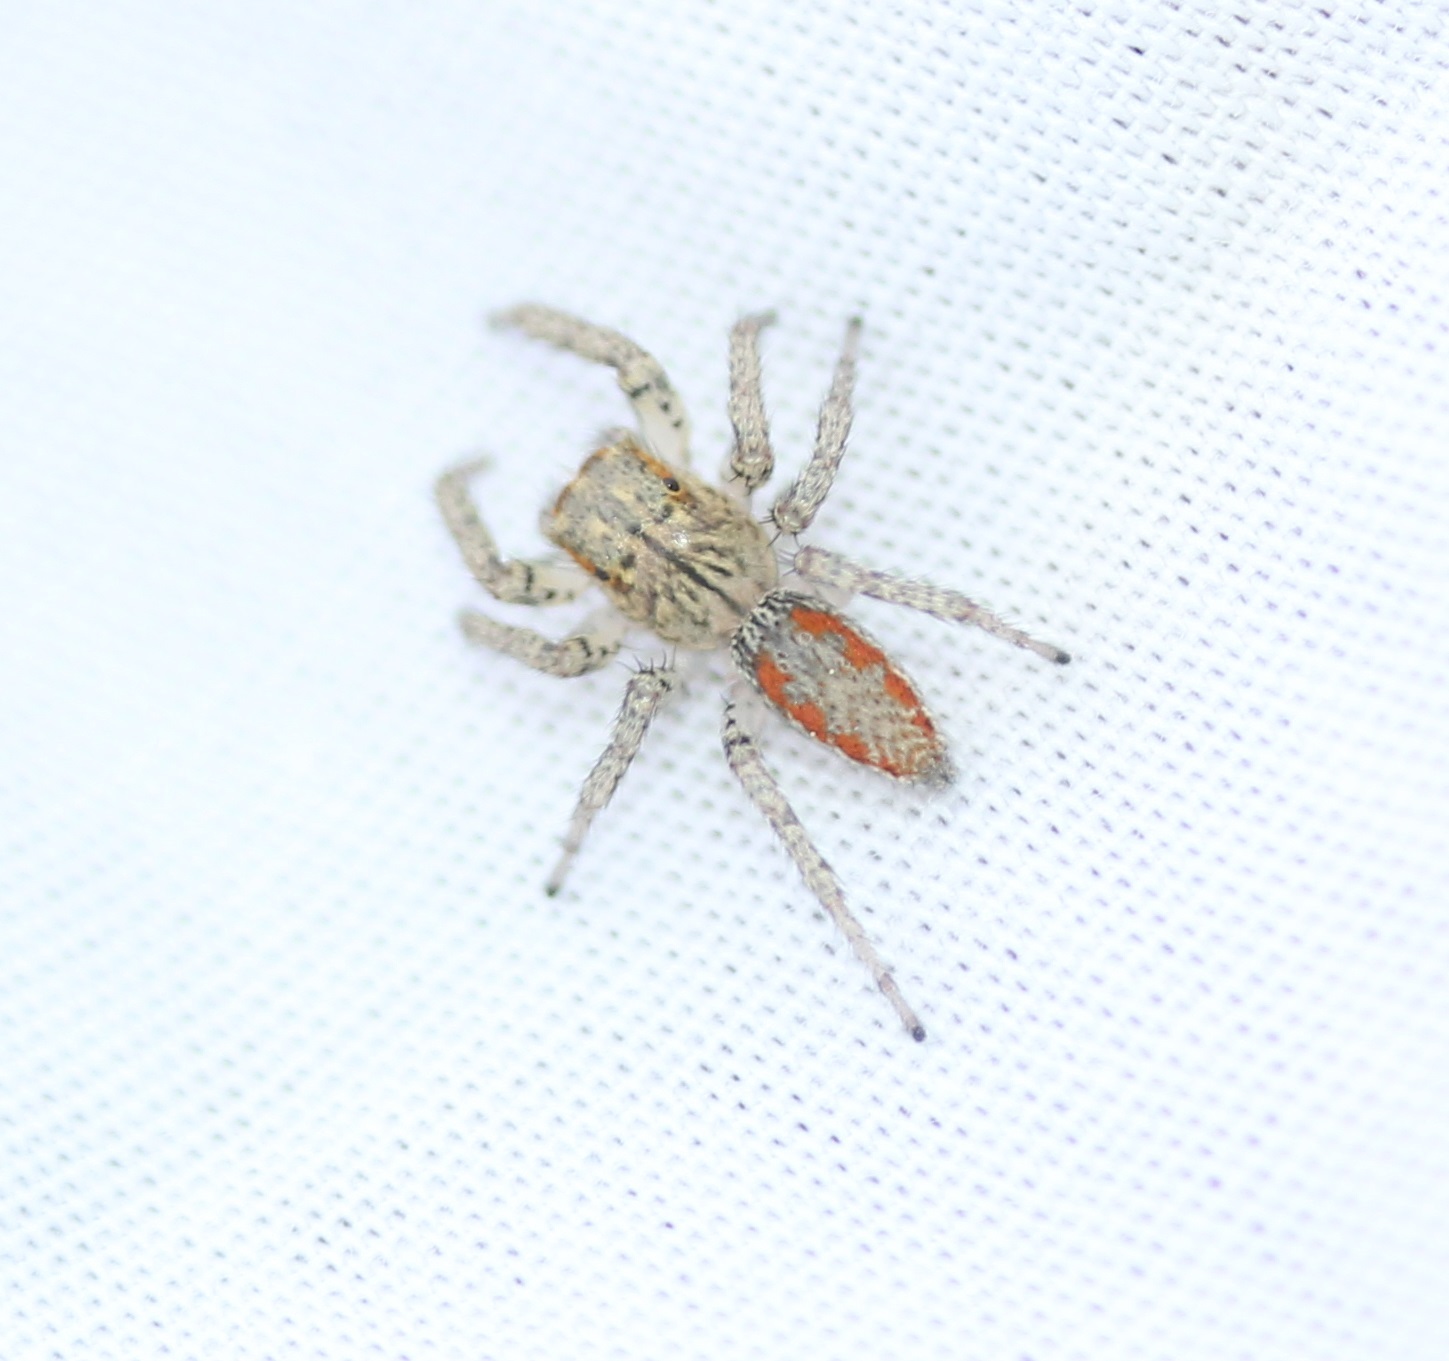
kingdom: Animalia
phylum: Arthropoda
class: Arachnida
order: Araneae
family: Salticidae
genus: Maevia
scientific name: Maevia inclemens
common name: Dimorphic jumper
